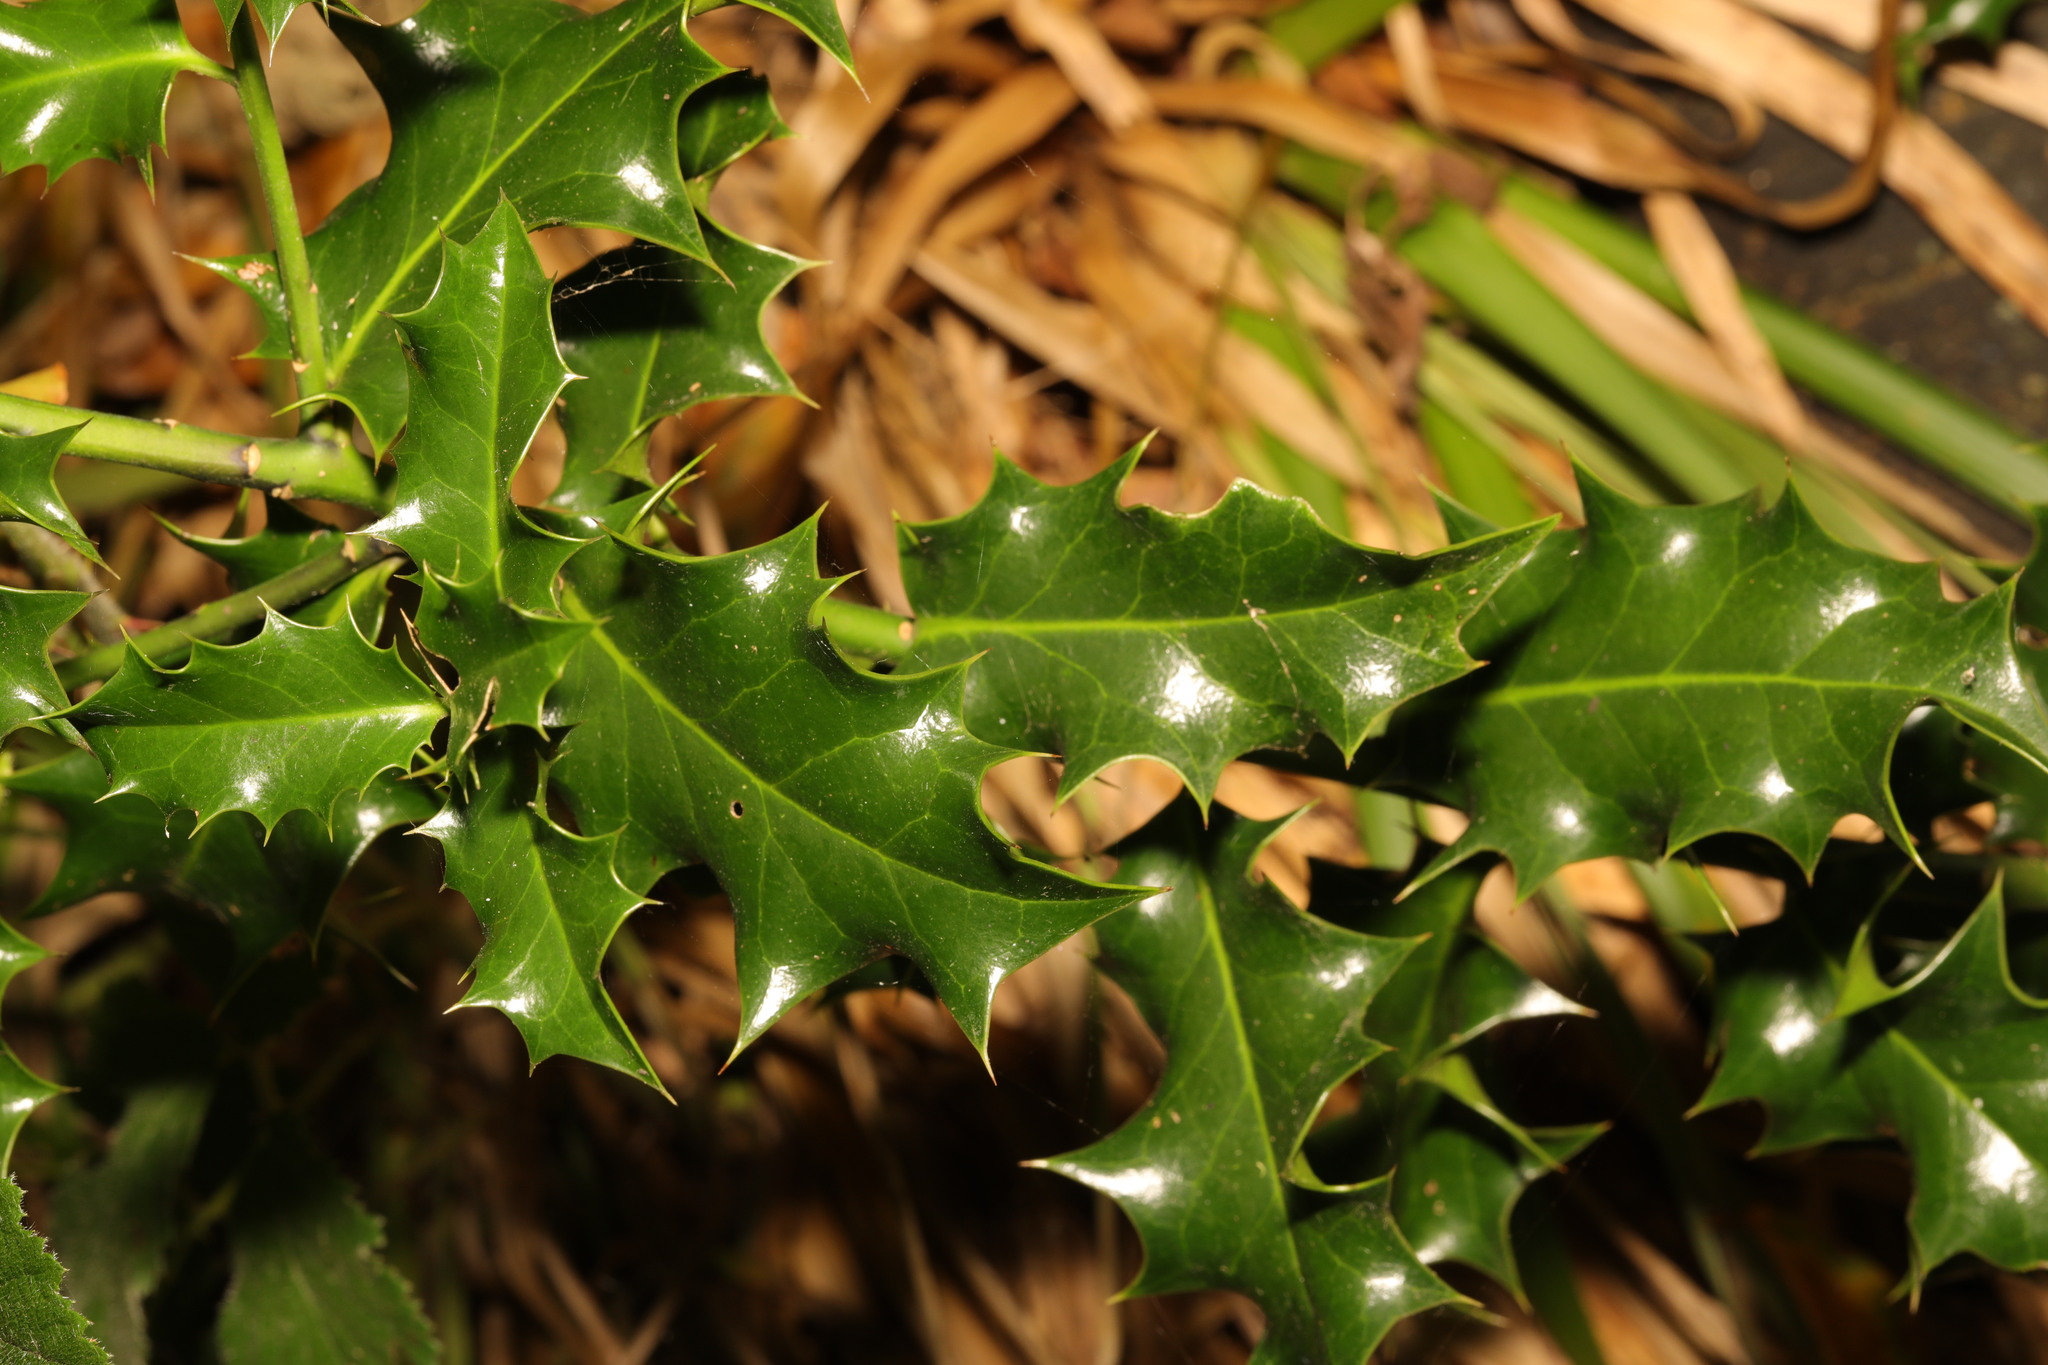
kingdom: Plantae
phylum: Tracheophyta
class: Magnoliopsida
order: Aquifoliales
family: Aquifoliaceae
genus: Ilex
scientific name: Ilex aquifolium
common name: English holly
